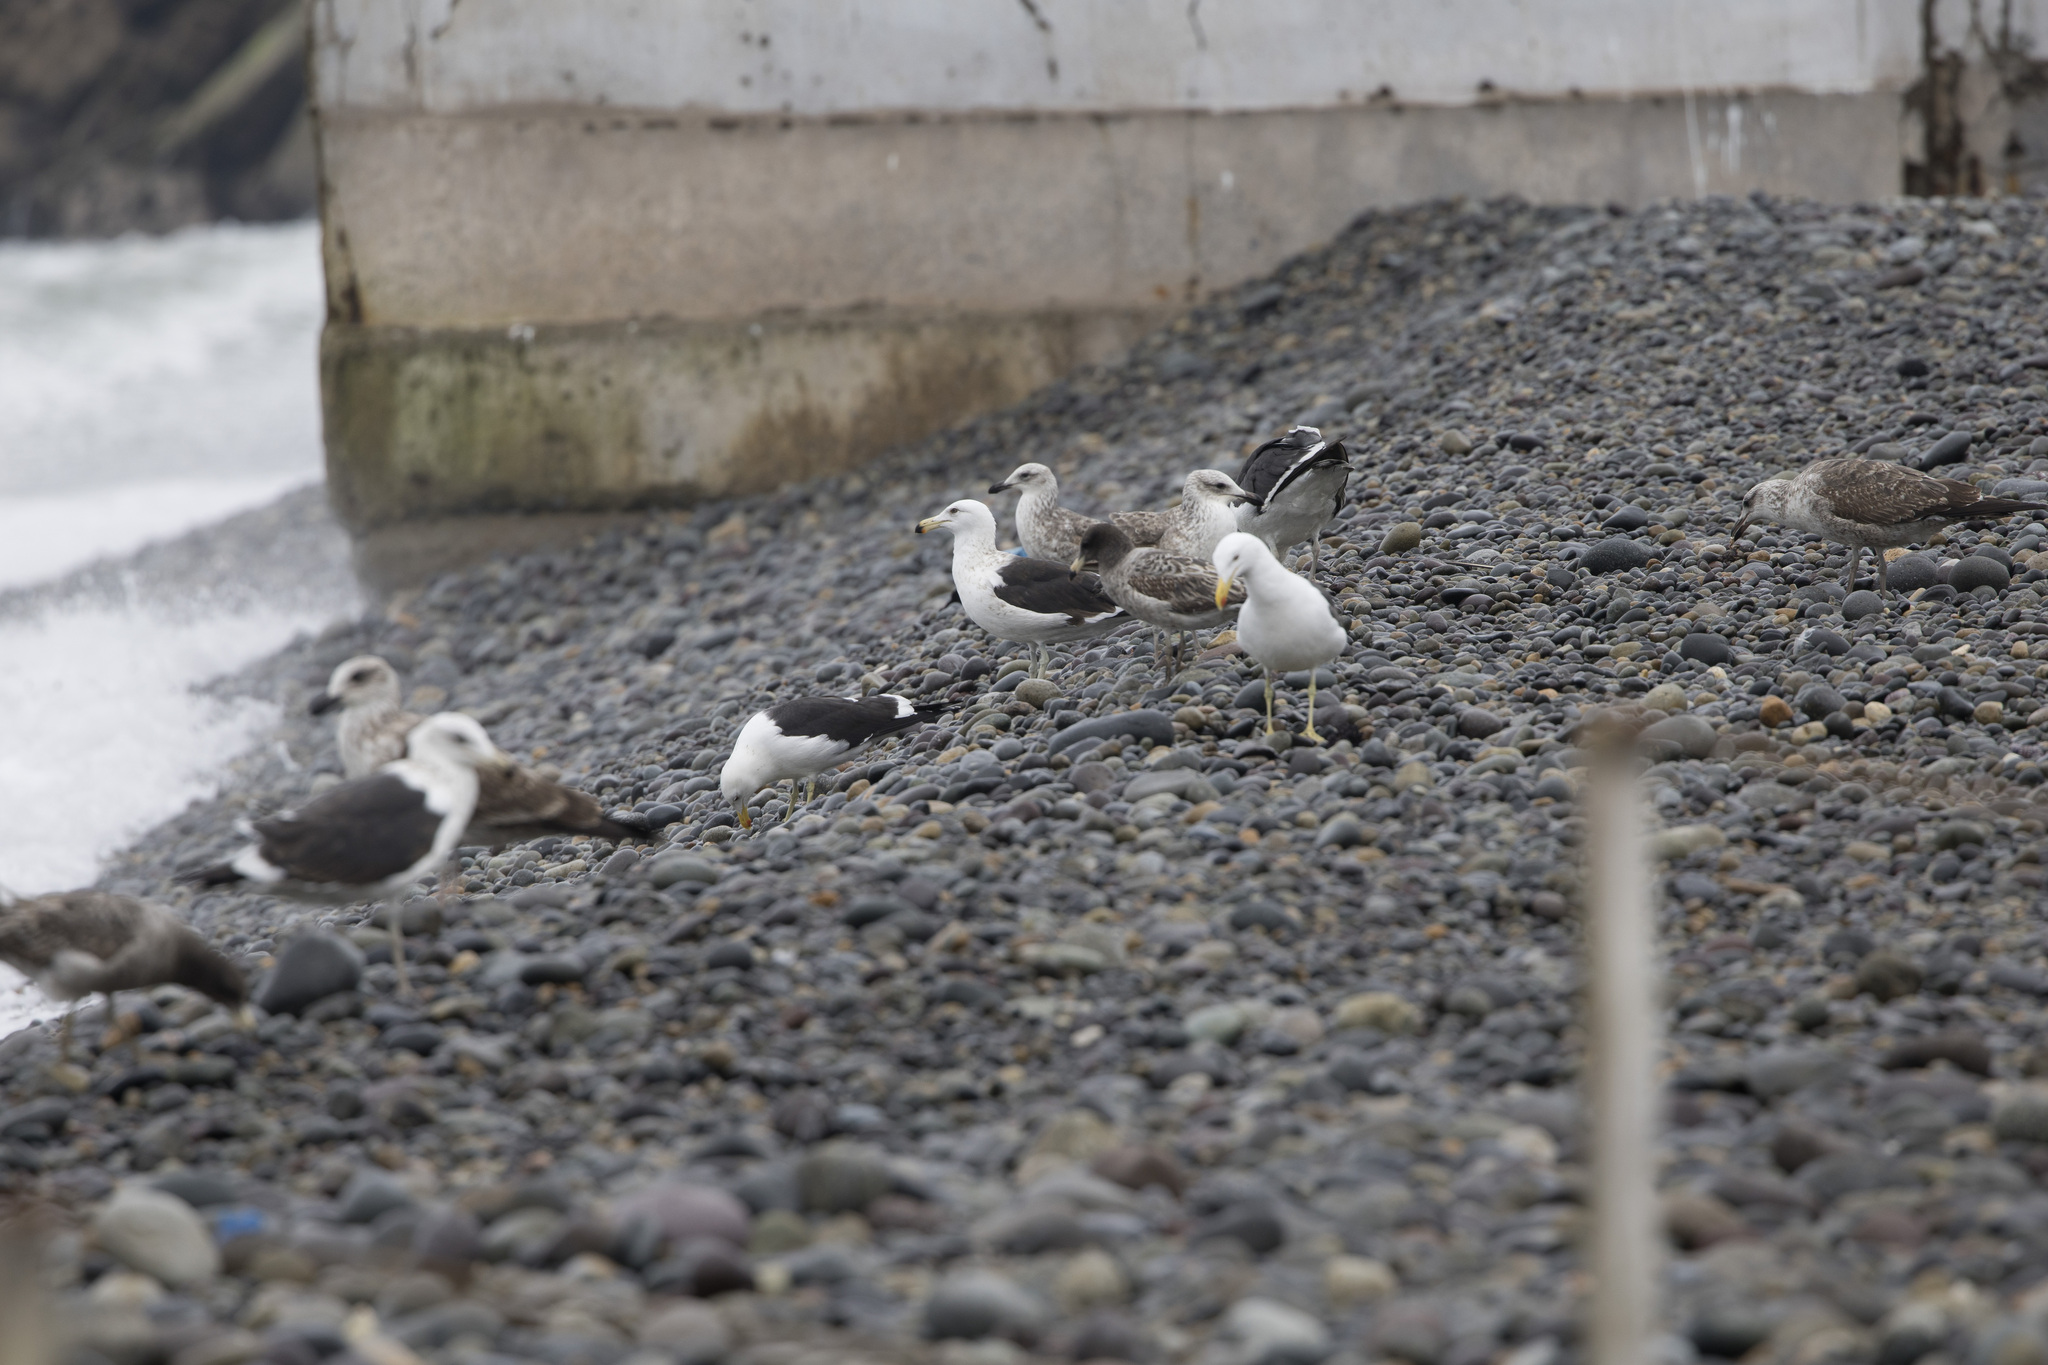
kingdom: Animalia
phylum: Chordata
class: Aves
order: Charadriiformes
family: Laridae
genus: Larus
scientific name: Larus belcheri
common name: Belcher's gull
